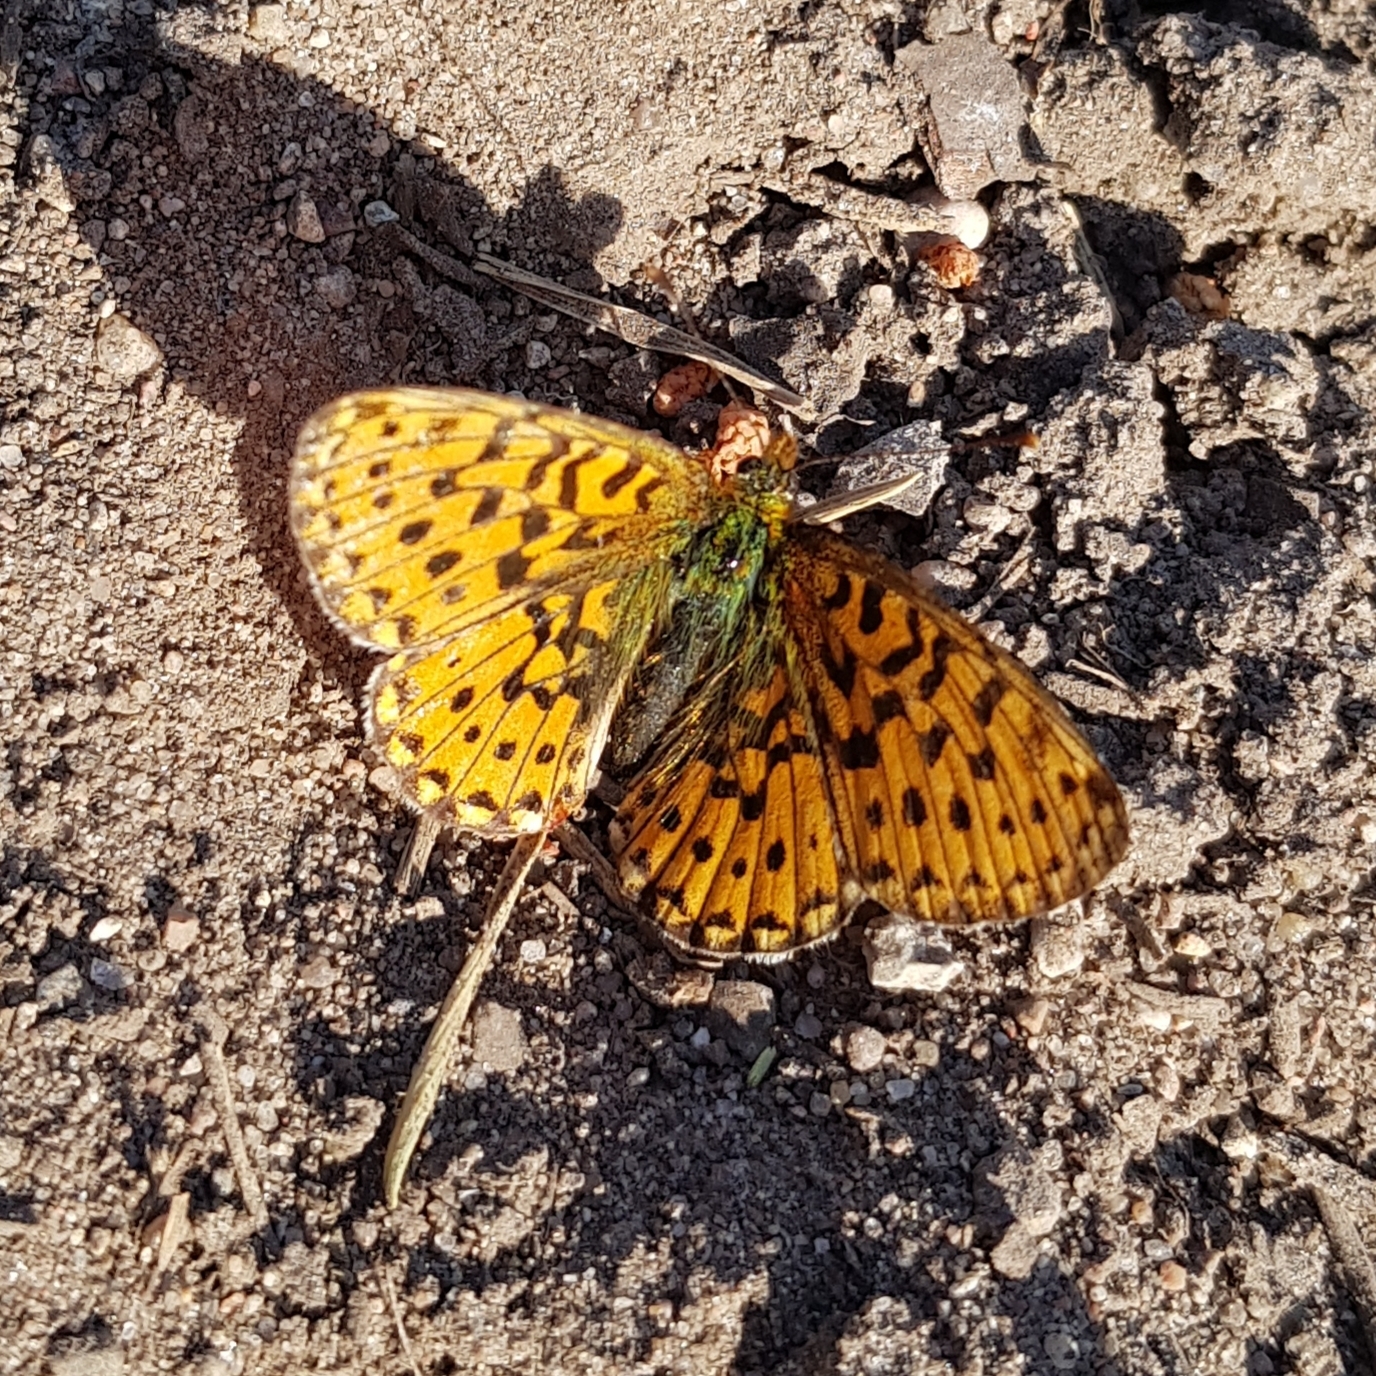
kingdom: Animalia
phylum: Arthropoda
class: Insecta
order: Lepidoptera
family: Nymphalidae
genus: Clossiana
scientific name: Clossiana euphrosyne
